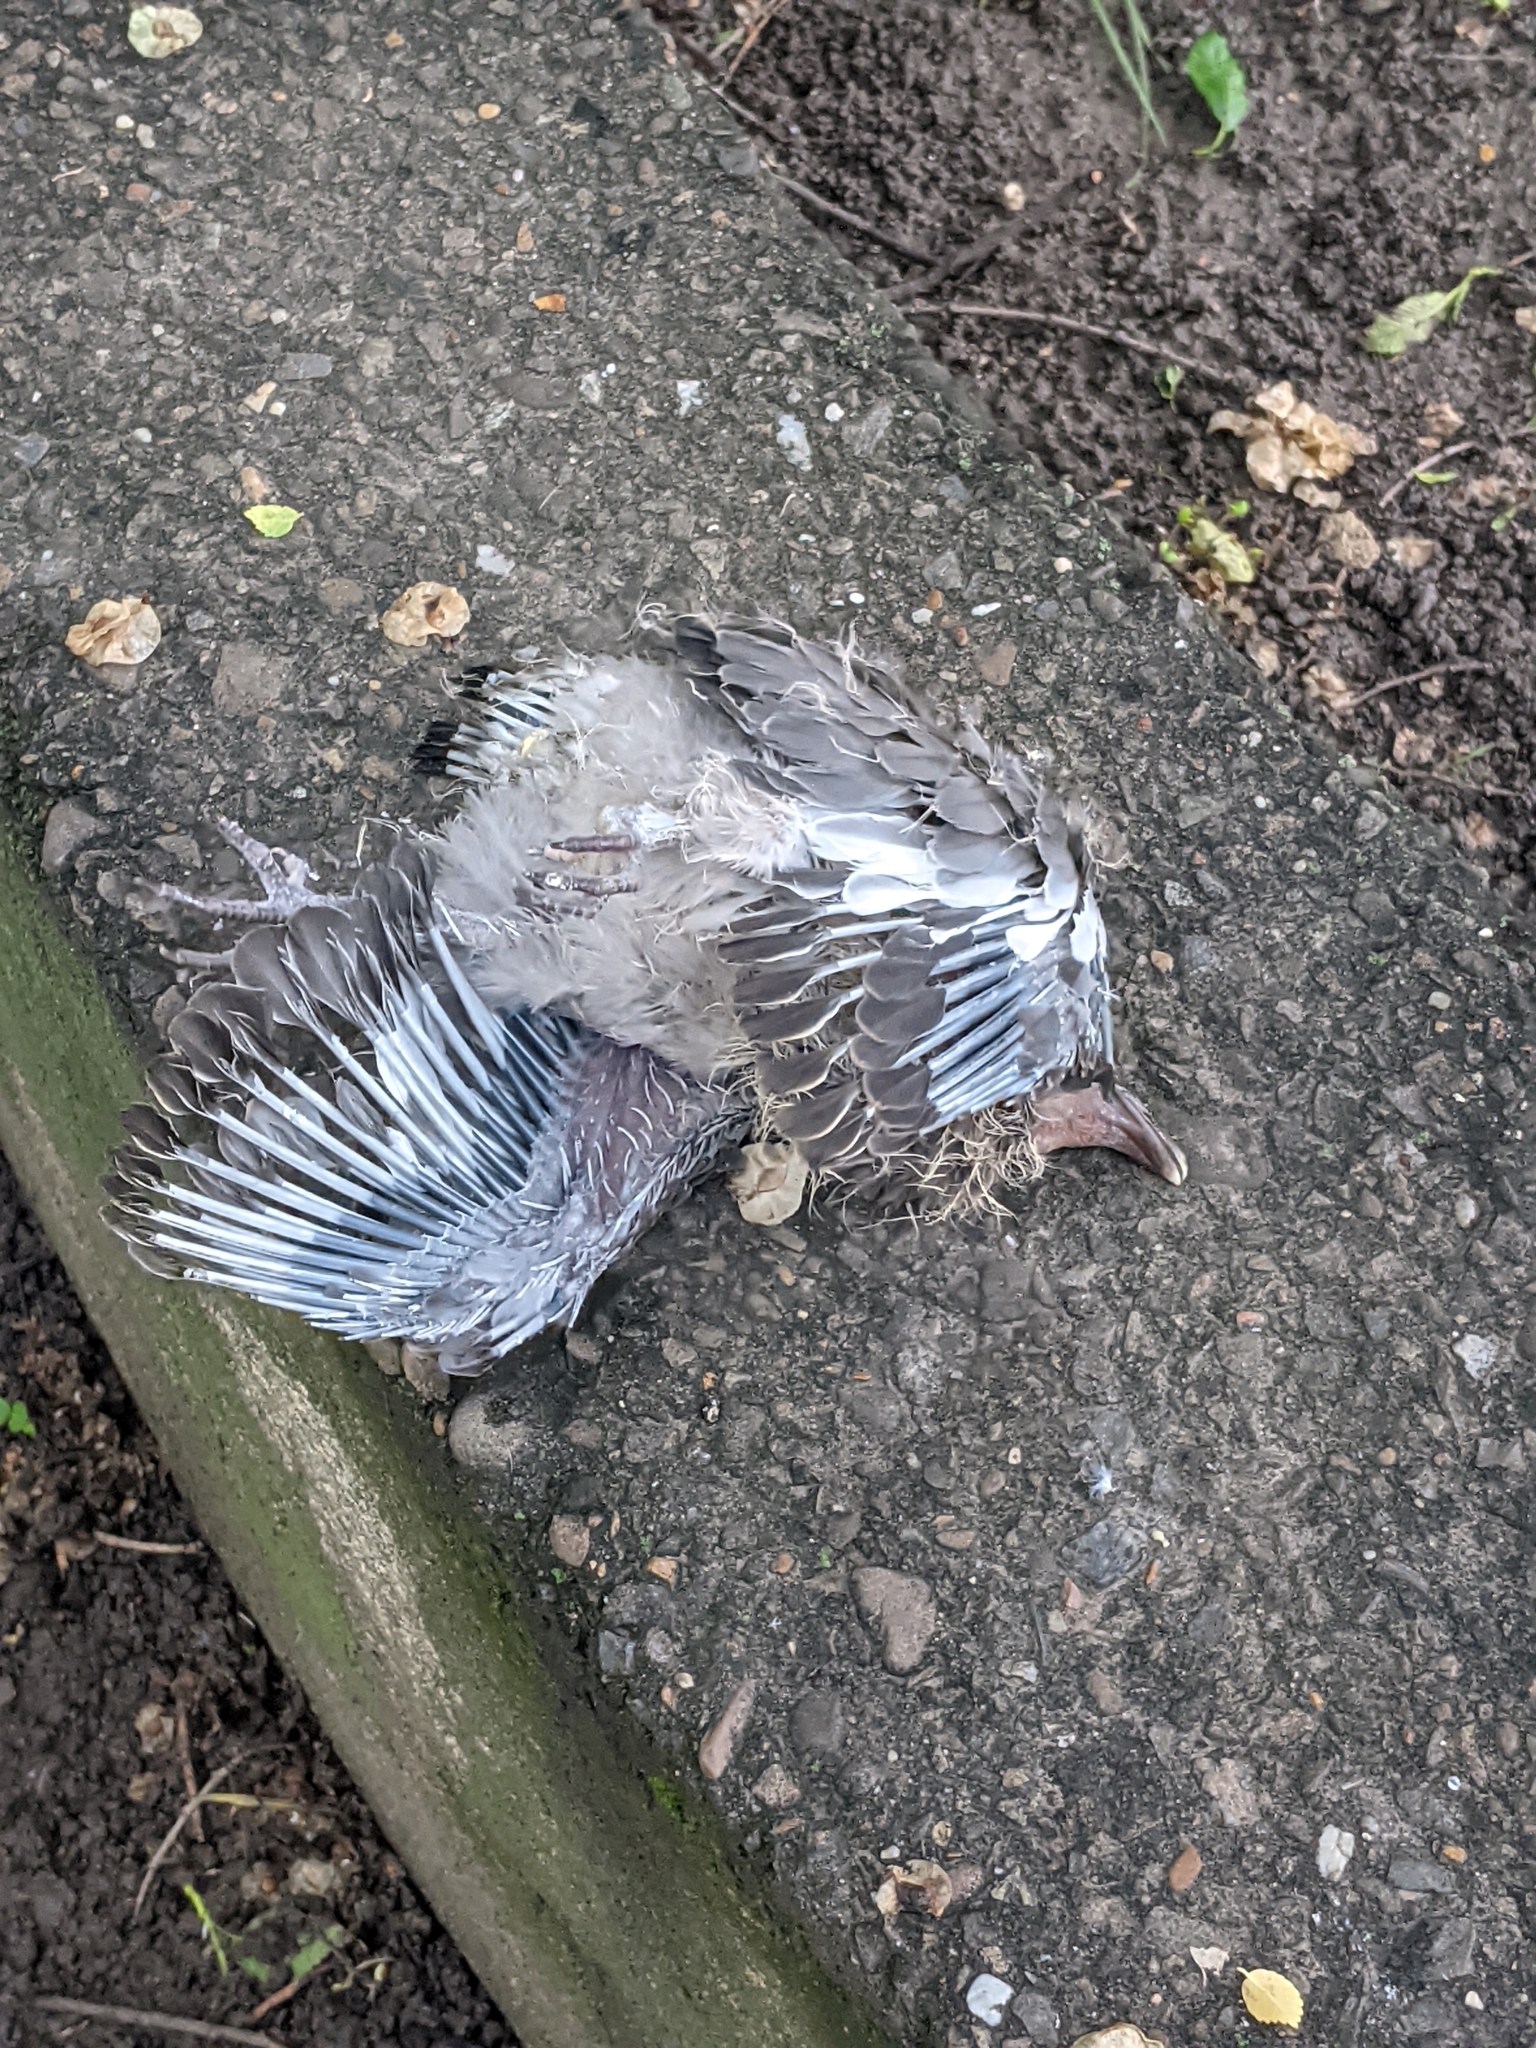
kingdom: Animalia
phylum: Chordata
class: Aves
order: Columbiformes
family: Columbidae
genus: Columba
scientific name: Columba palumbus
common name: Common wood pigeon
